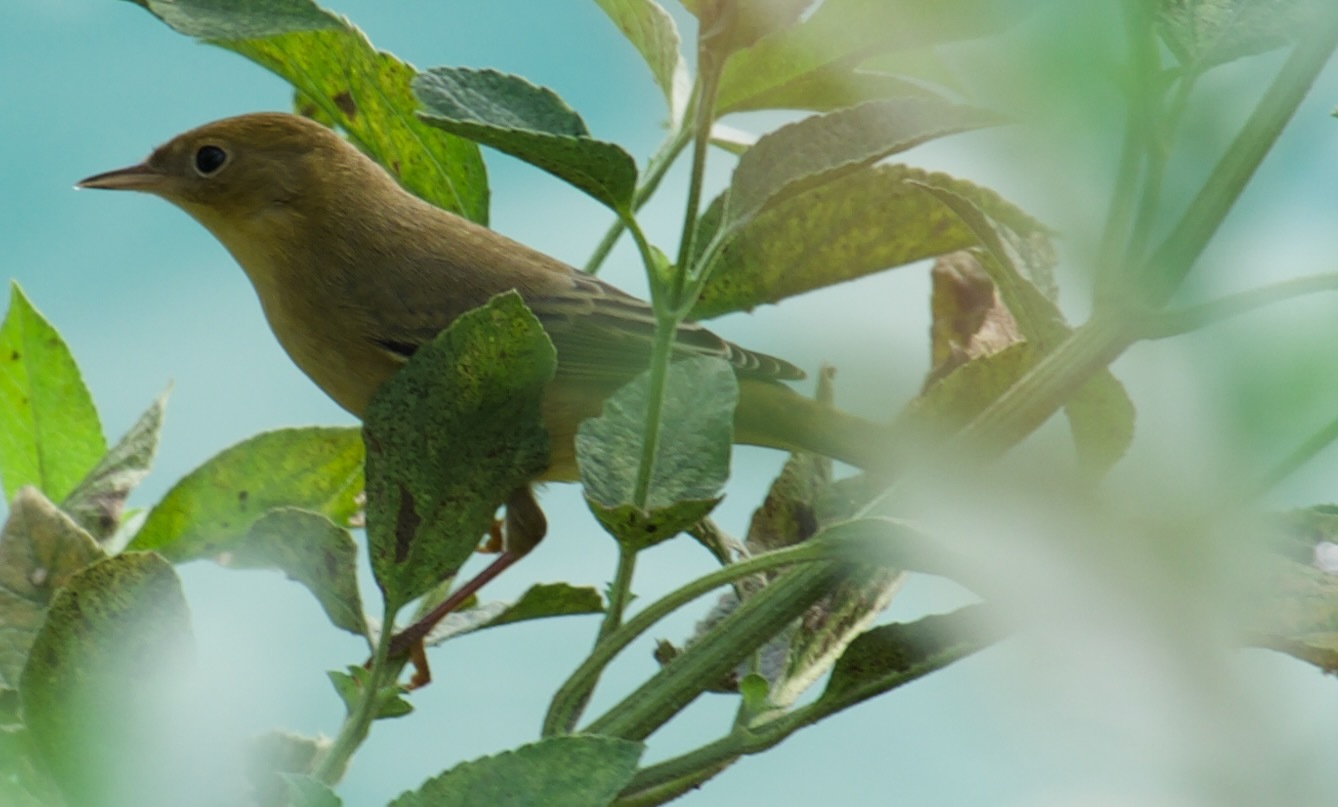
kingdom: Animalia
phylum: Chordata
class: Aves
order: Passeriformes
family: Parulidae
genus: Setophaga
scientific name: Setophaga petechia
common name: Yellow warbler
